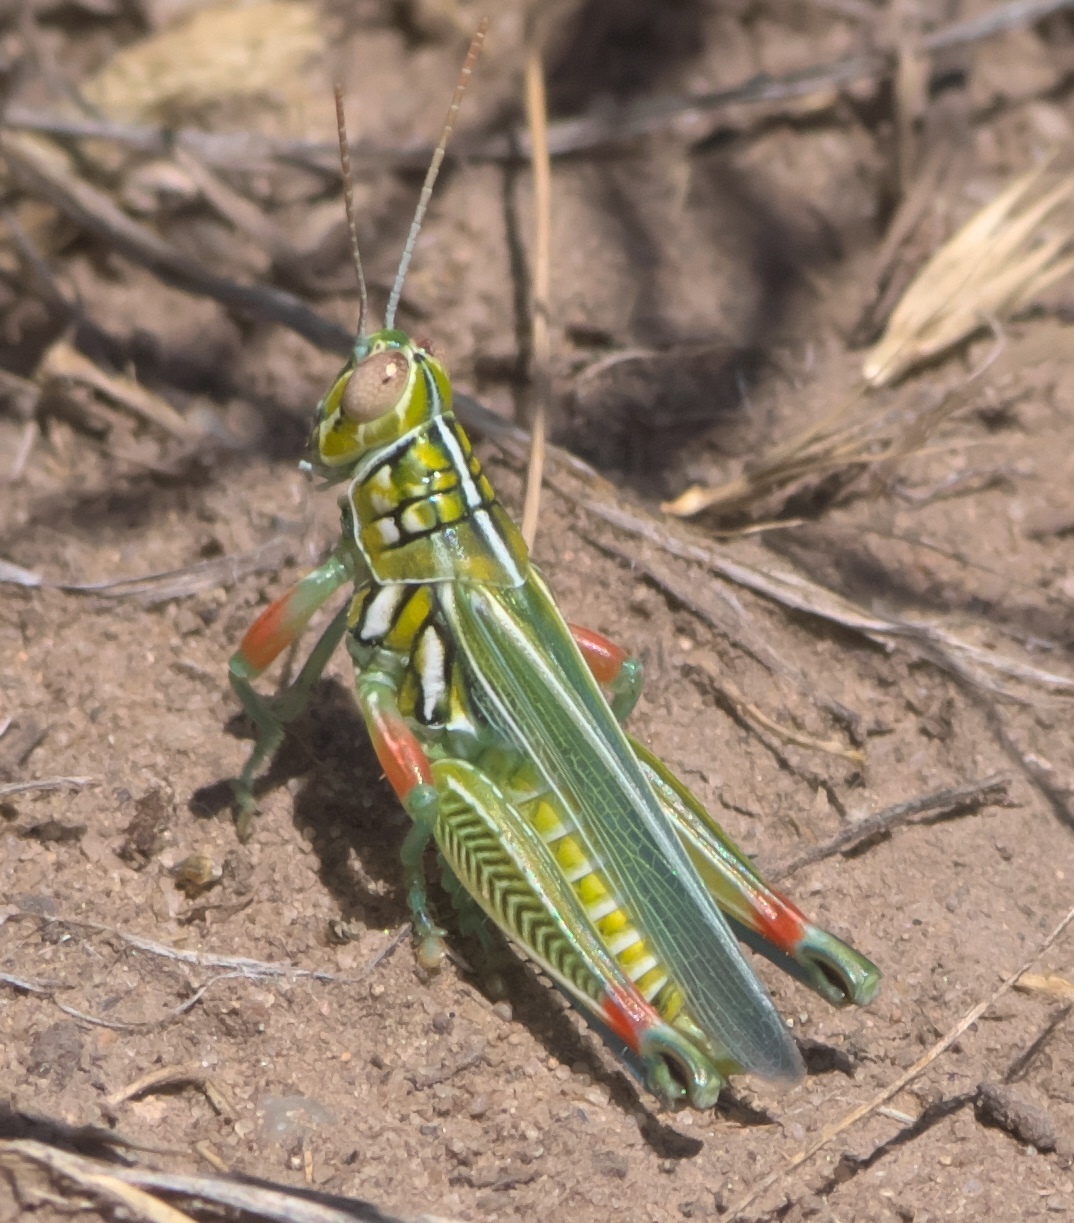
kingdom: Animalia
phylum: Arthropoda
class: Insecta
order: Orthoptera
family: Acrididae
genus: Hesperotettix
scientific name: Hesperotettix viridis
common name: Meadow purple-striped grasshopper
